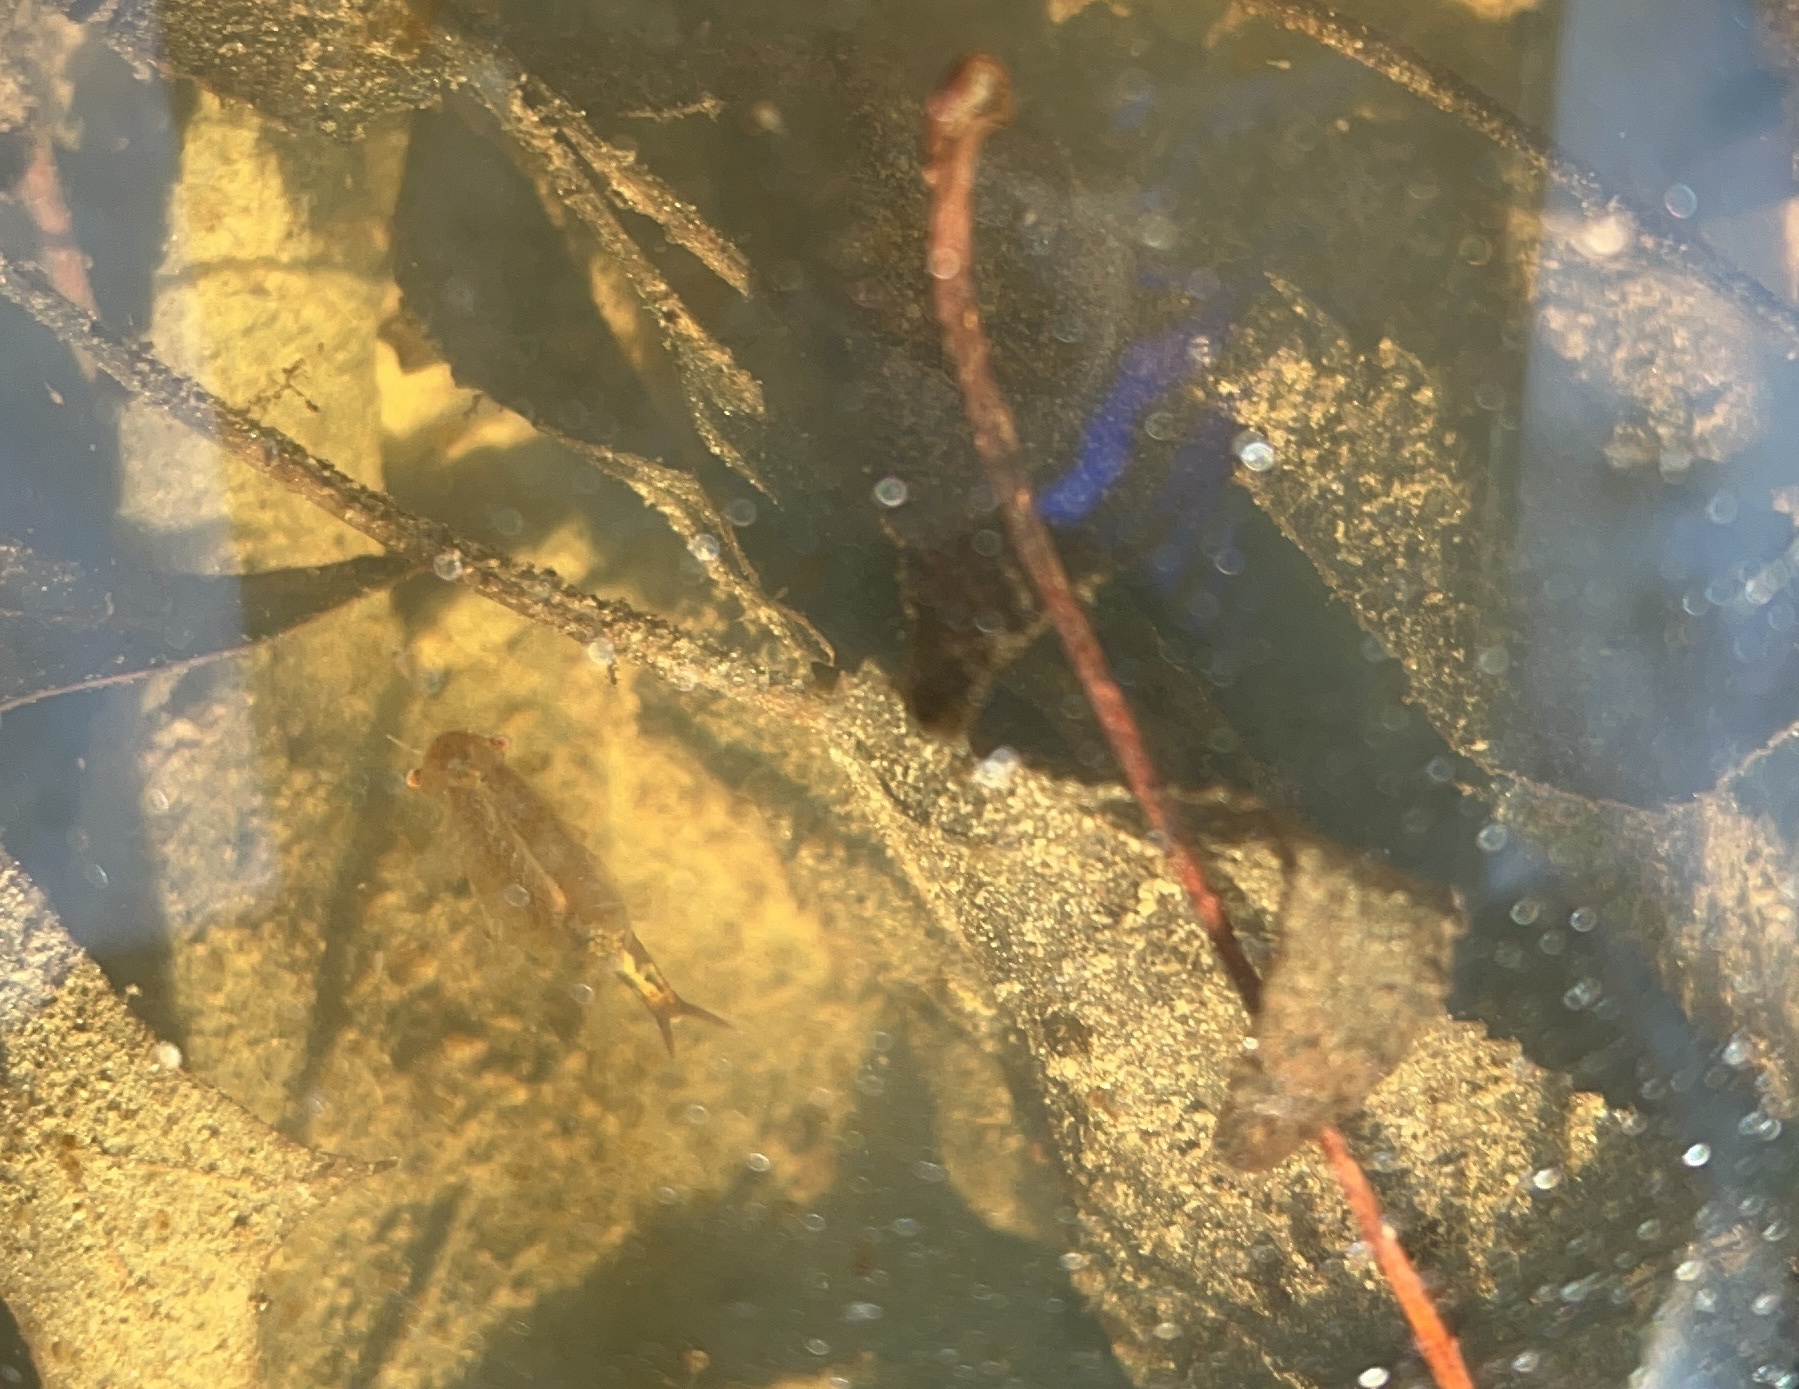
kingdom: Animalia
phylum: Arthropoda
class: Branchiopoda
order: Anostraca
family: Chirocephalidae
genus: Eubranchipus
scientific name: Eubranchipus neglectus
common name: Neglected fairy shrimp
